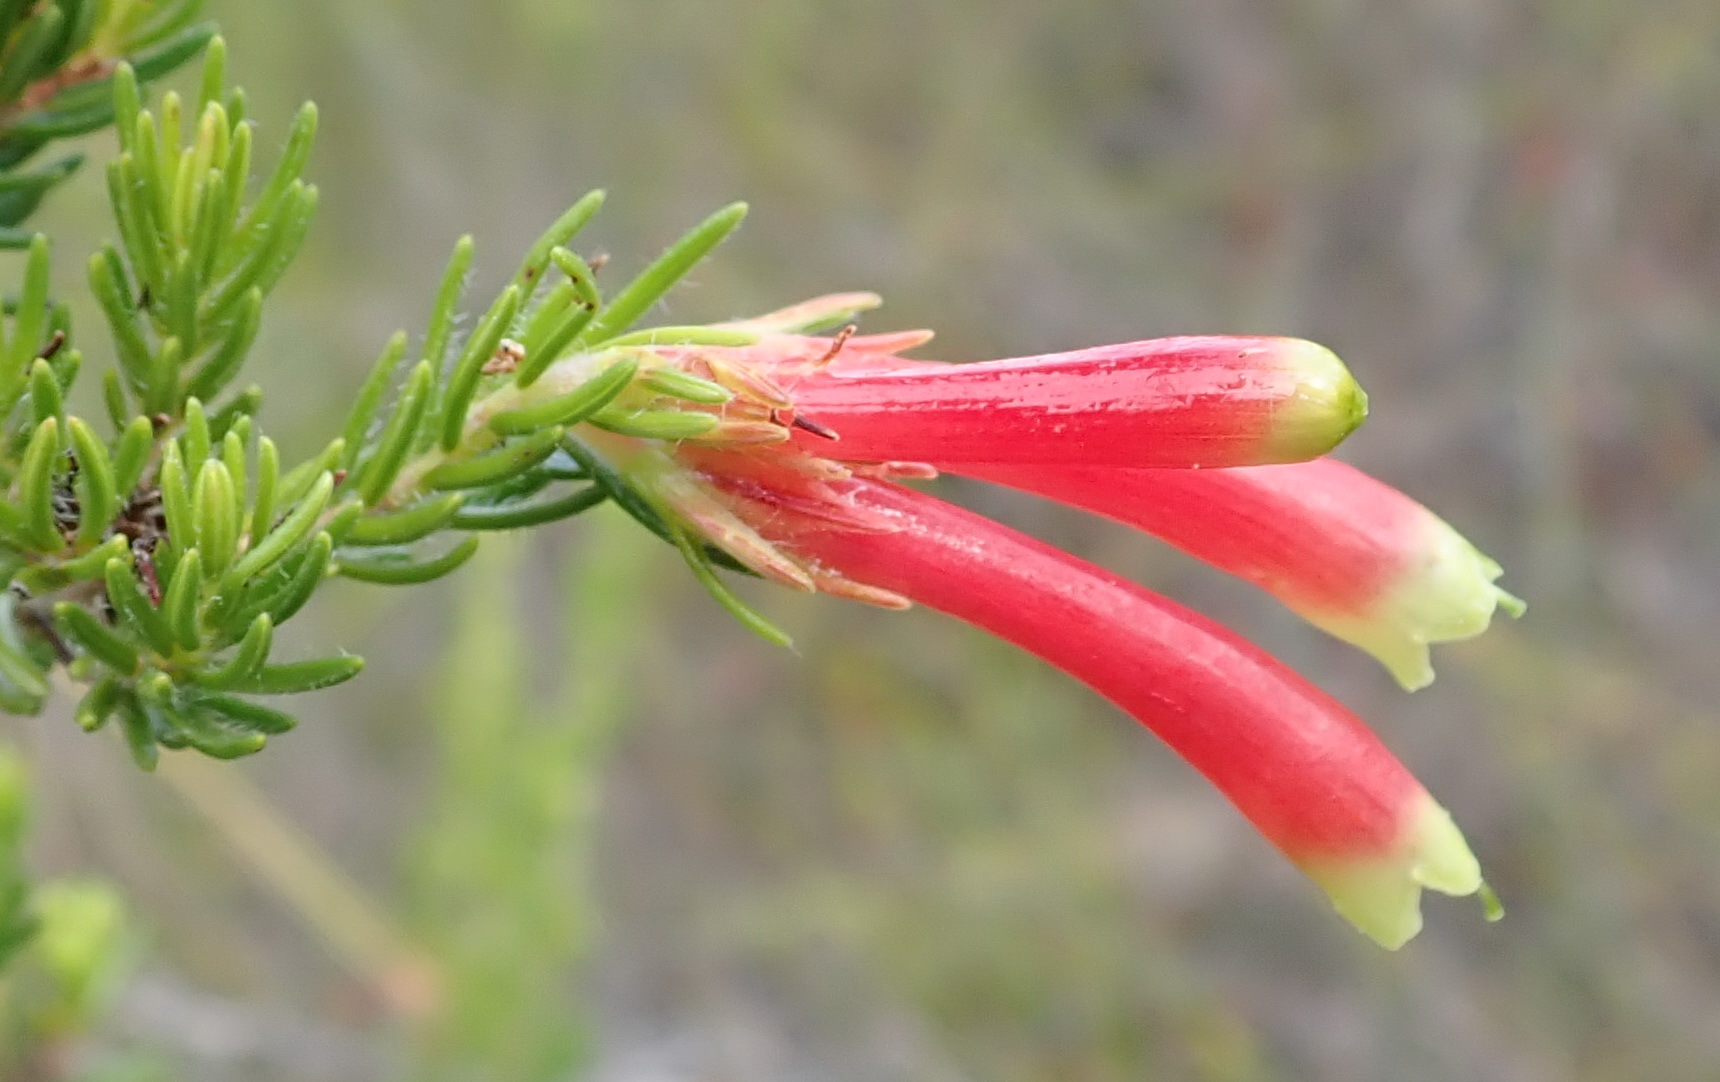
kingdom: Plantae
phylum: Tracheophyta
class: Magnoliopsida
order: Ericales
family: Ericaceae
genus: Erica
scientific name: Erica discolor
